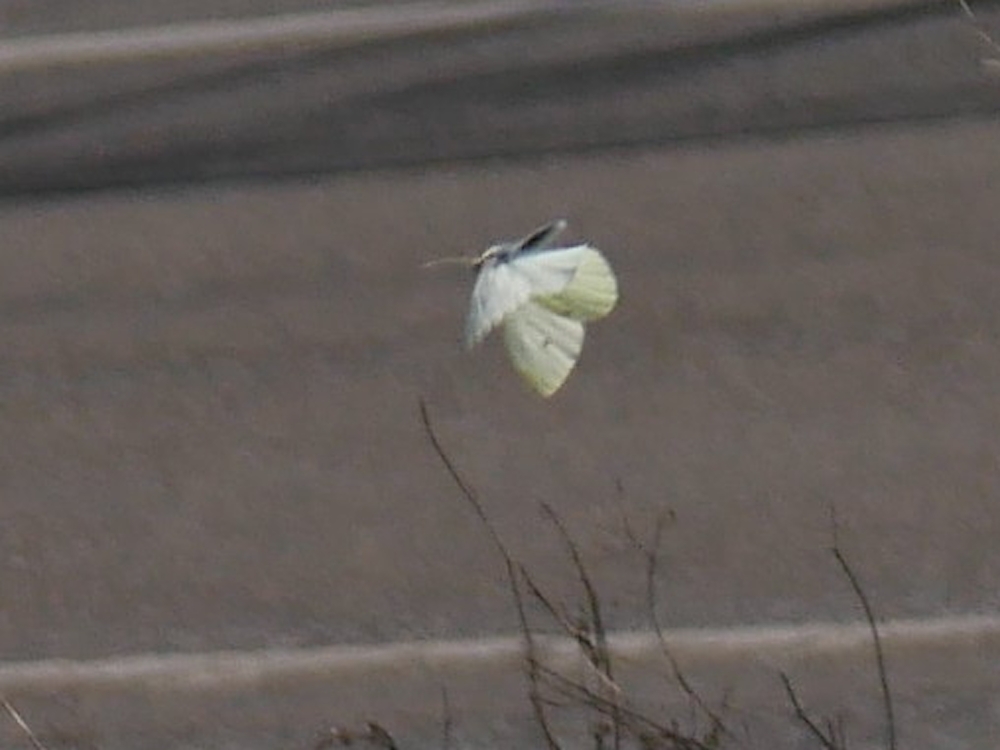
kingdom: Animalia
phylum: Arthropoda
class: Insecta
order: Lepidoptera
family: Pieridae
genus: Pieris
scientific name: Pieris rapae
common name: Small white
